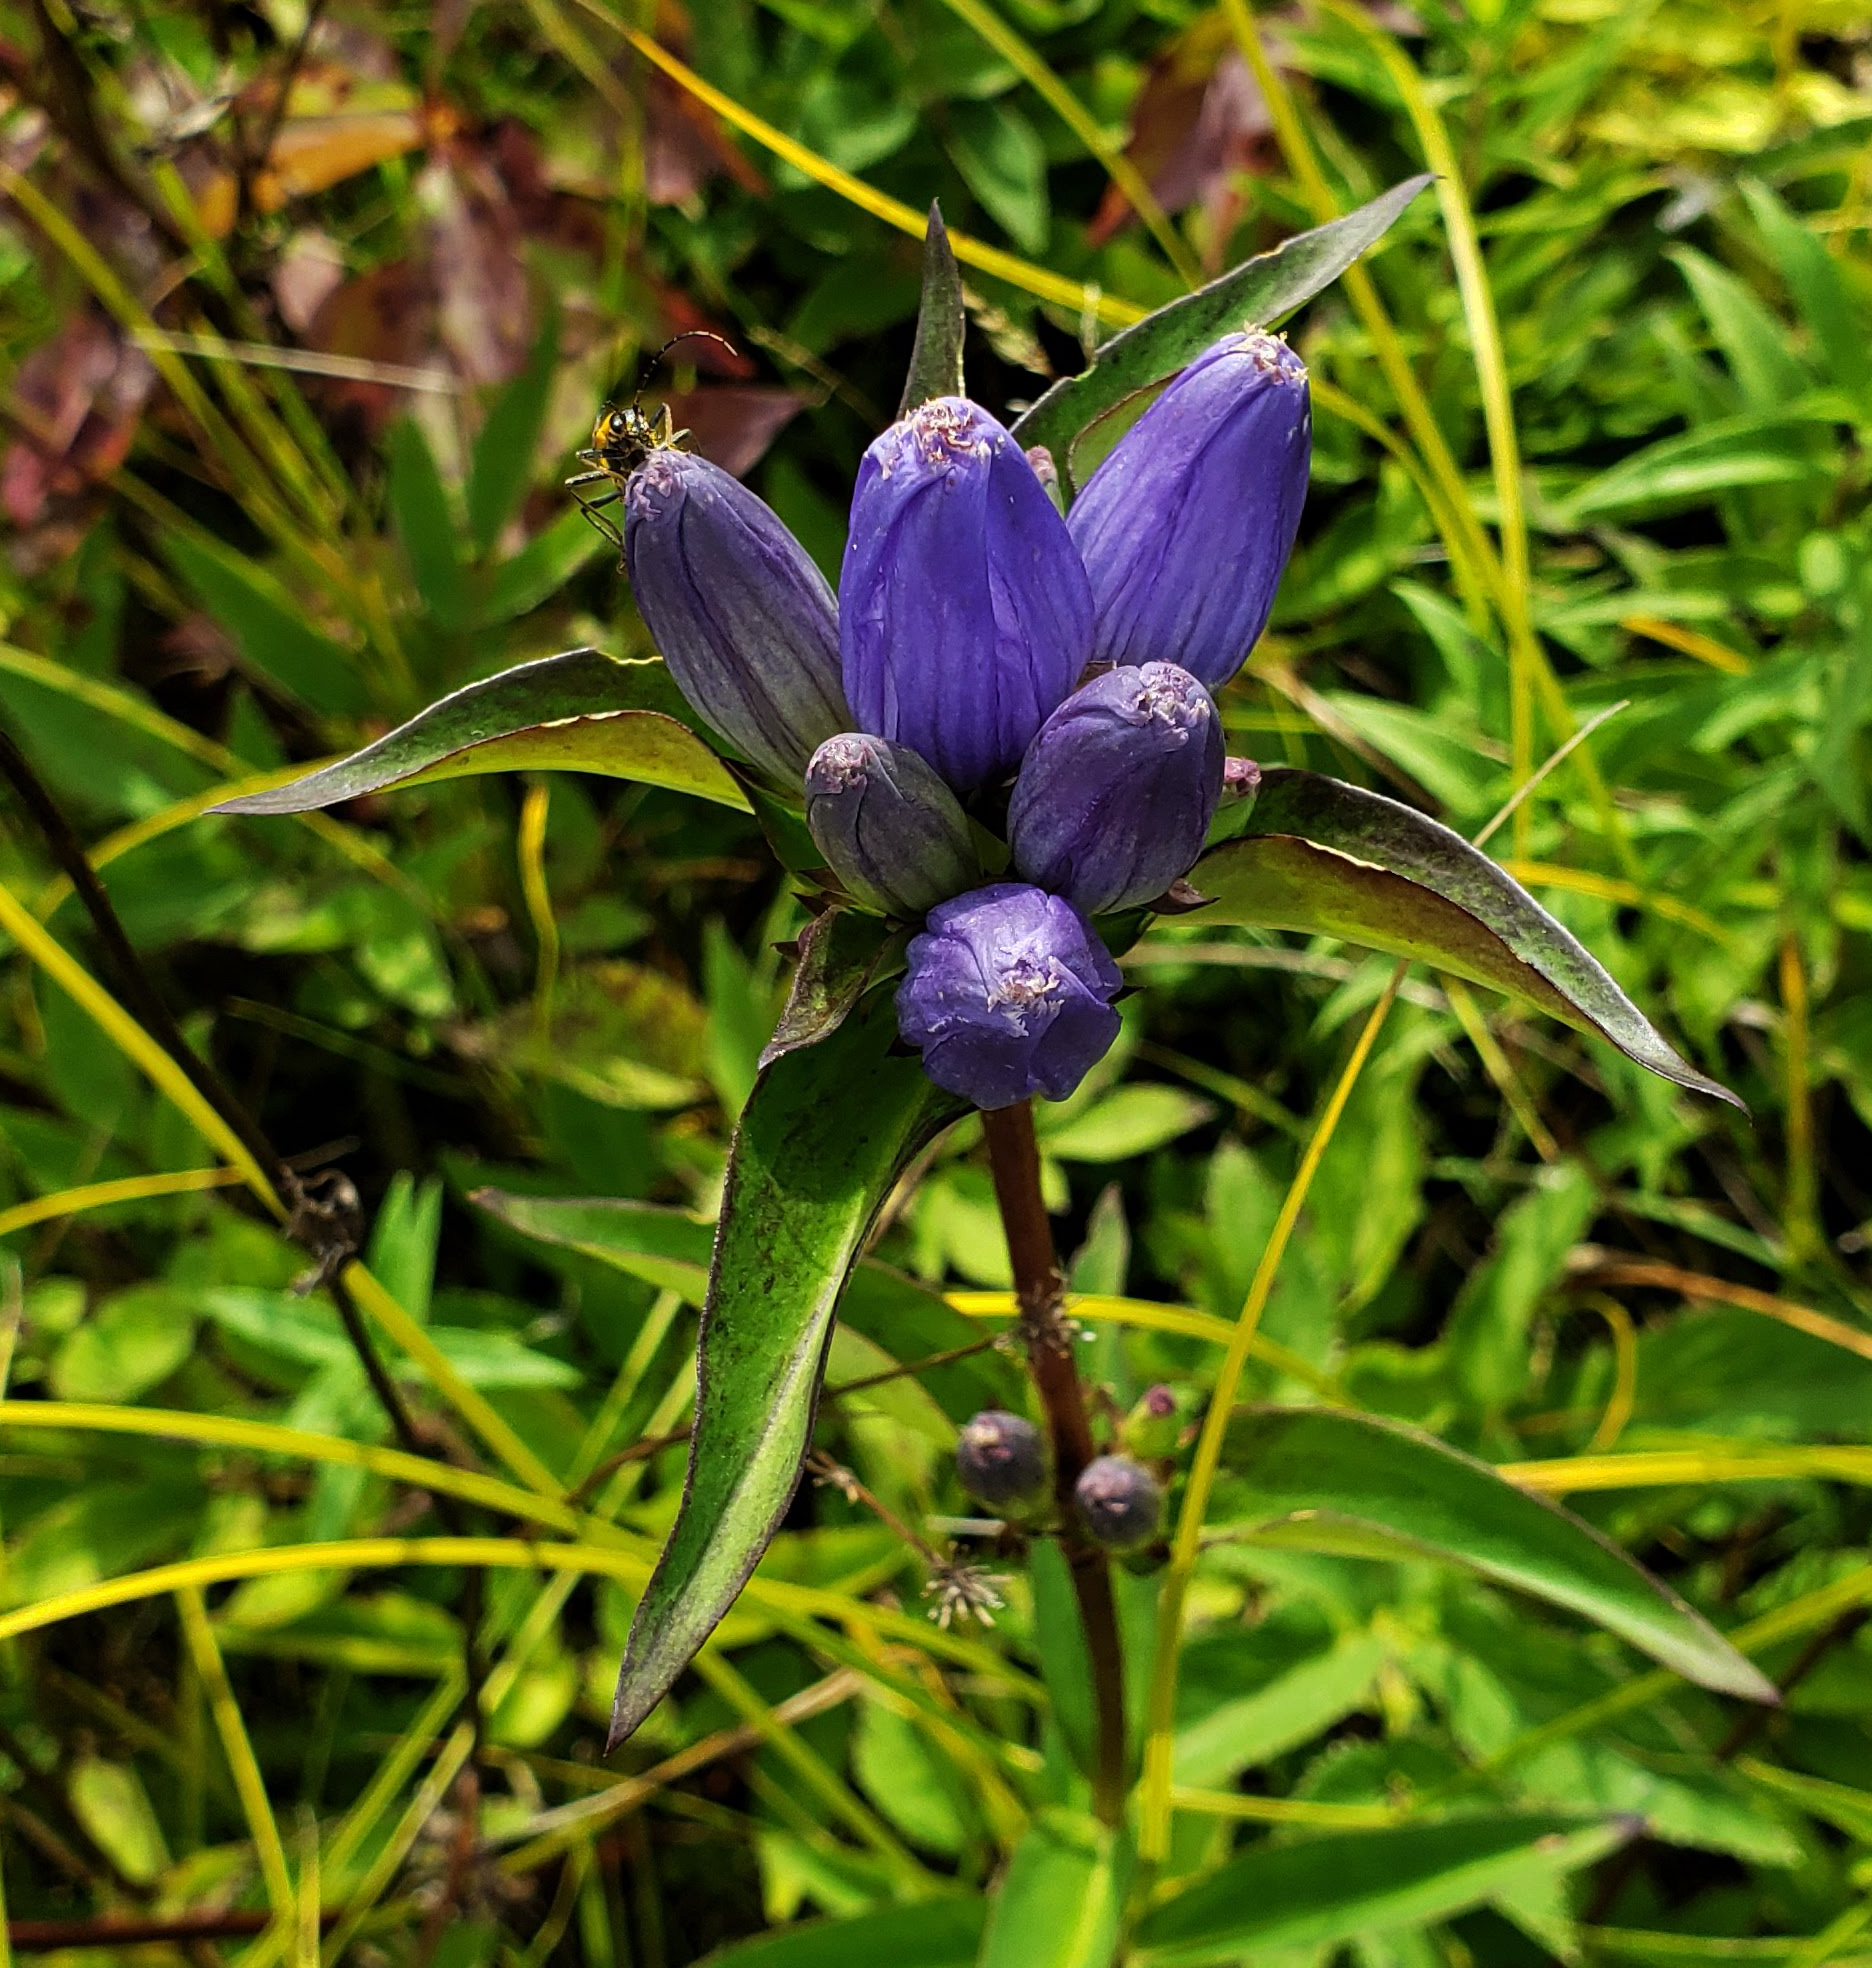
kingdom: Plantae
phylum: Tracheophyta
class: Magnoliopsida
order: Gentianales
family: Gentianaceae
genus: Gentiana
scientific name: Gentiana andrewsii
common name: Bottle gentian
